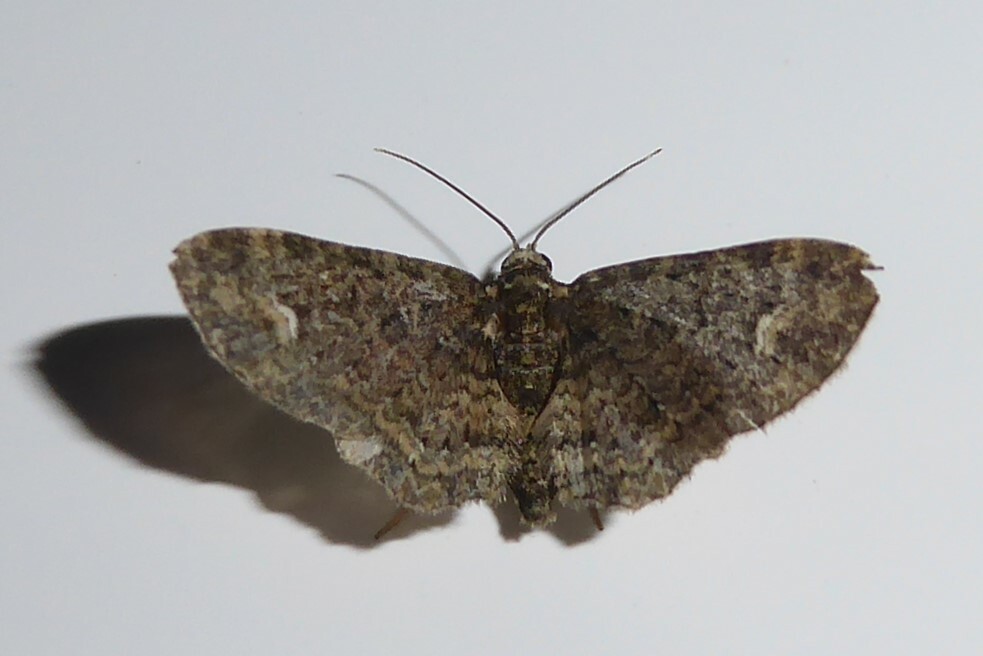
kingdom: Animalia
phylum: Arthropoda
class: Insecta
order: Lepidoptera
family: Geometridae
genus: Pasiphilodes
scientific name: Pasiphilodes testulata
